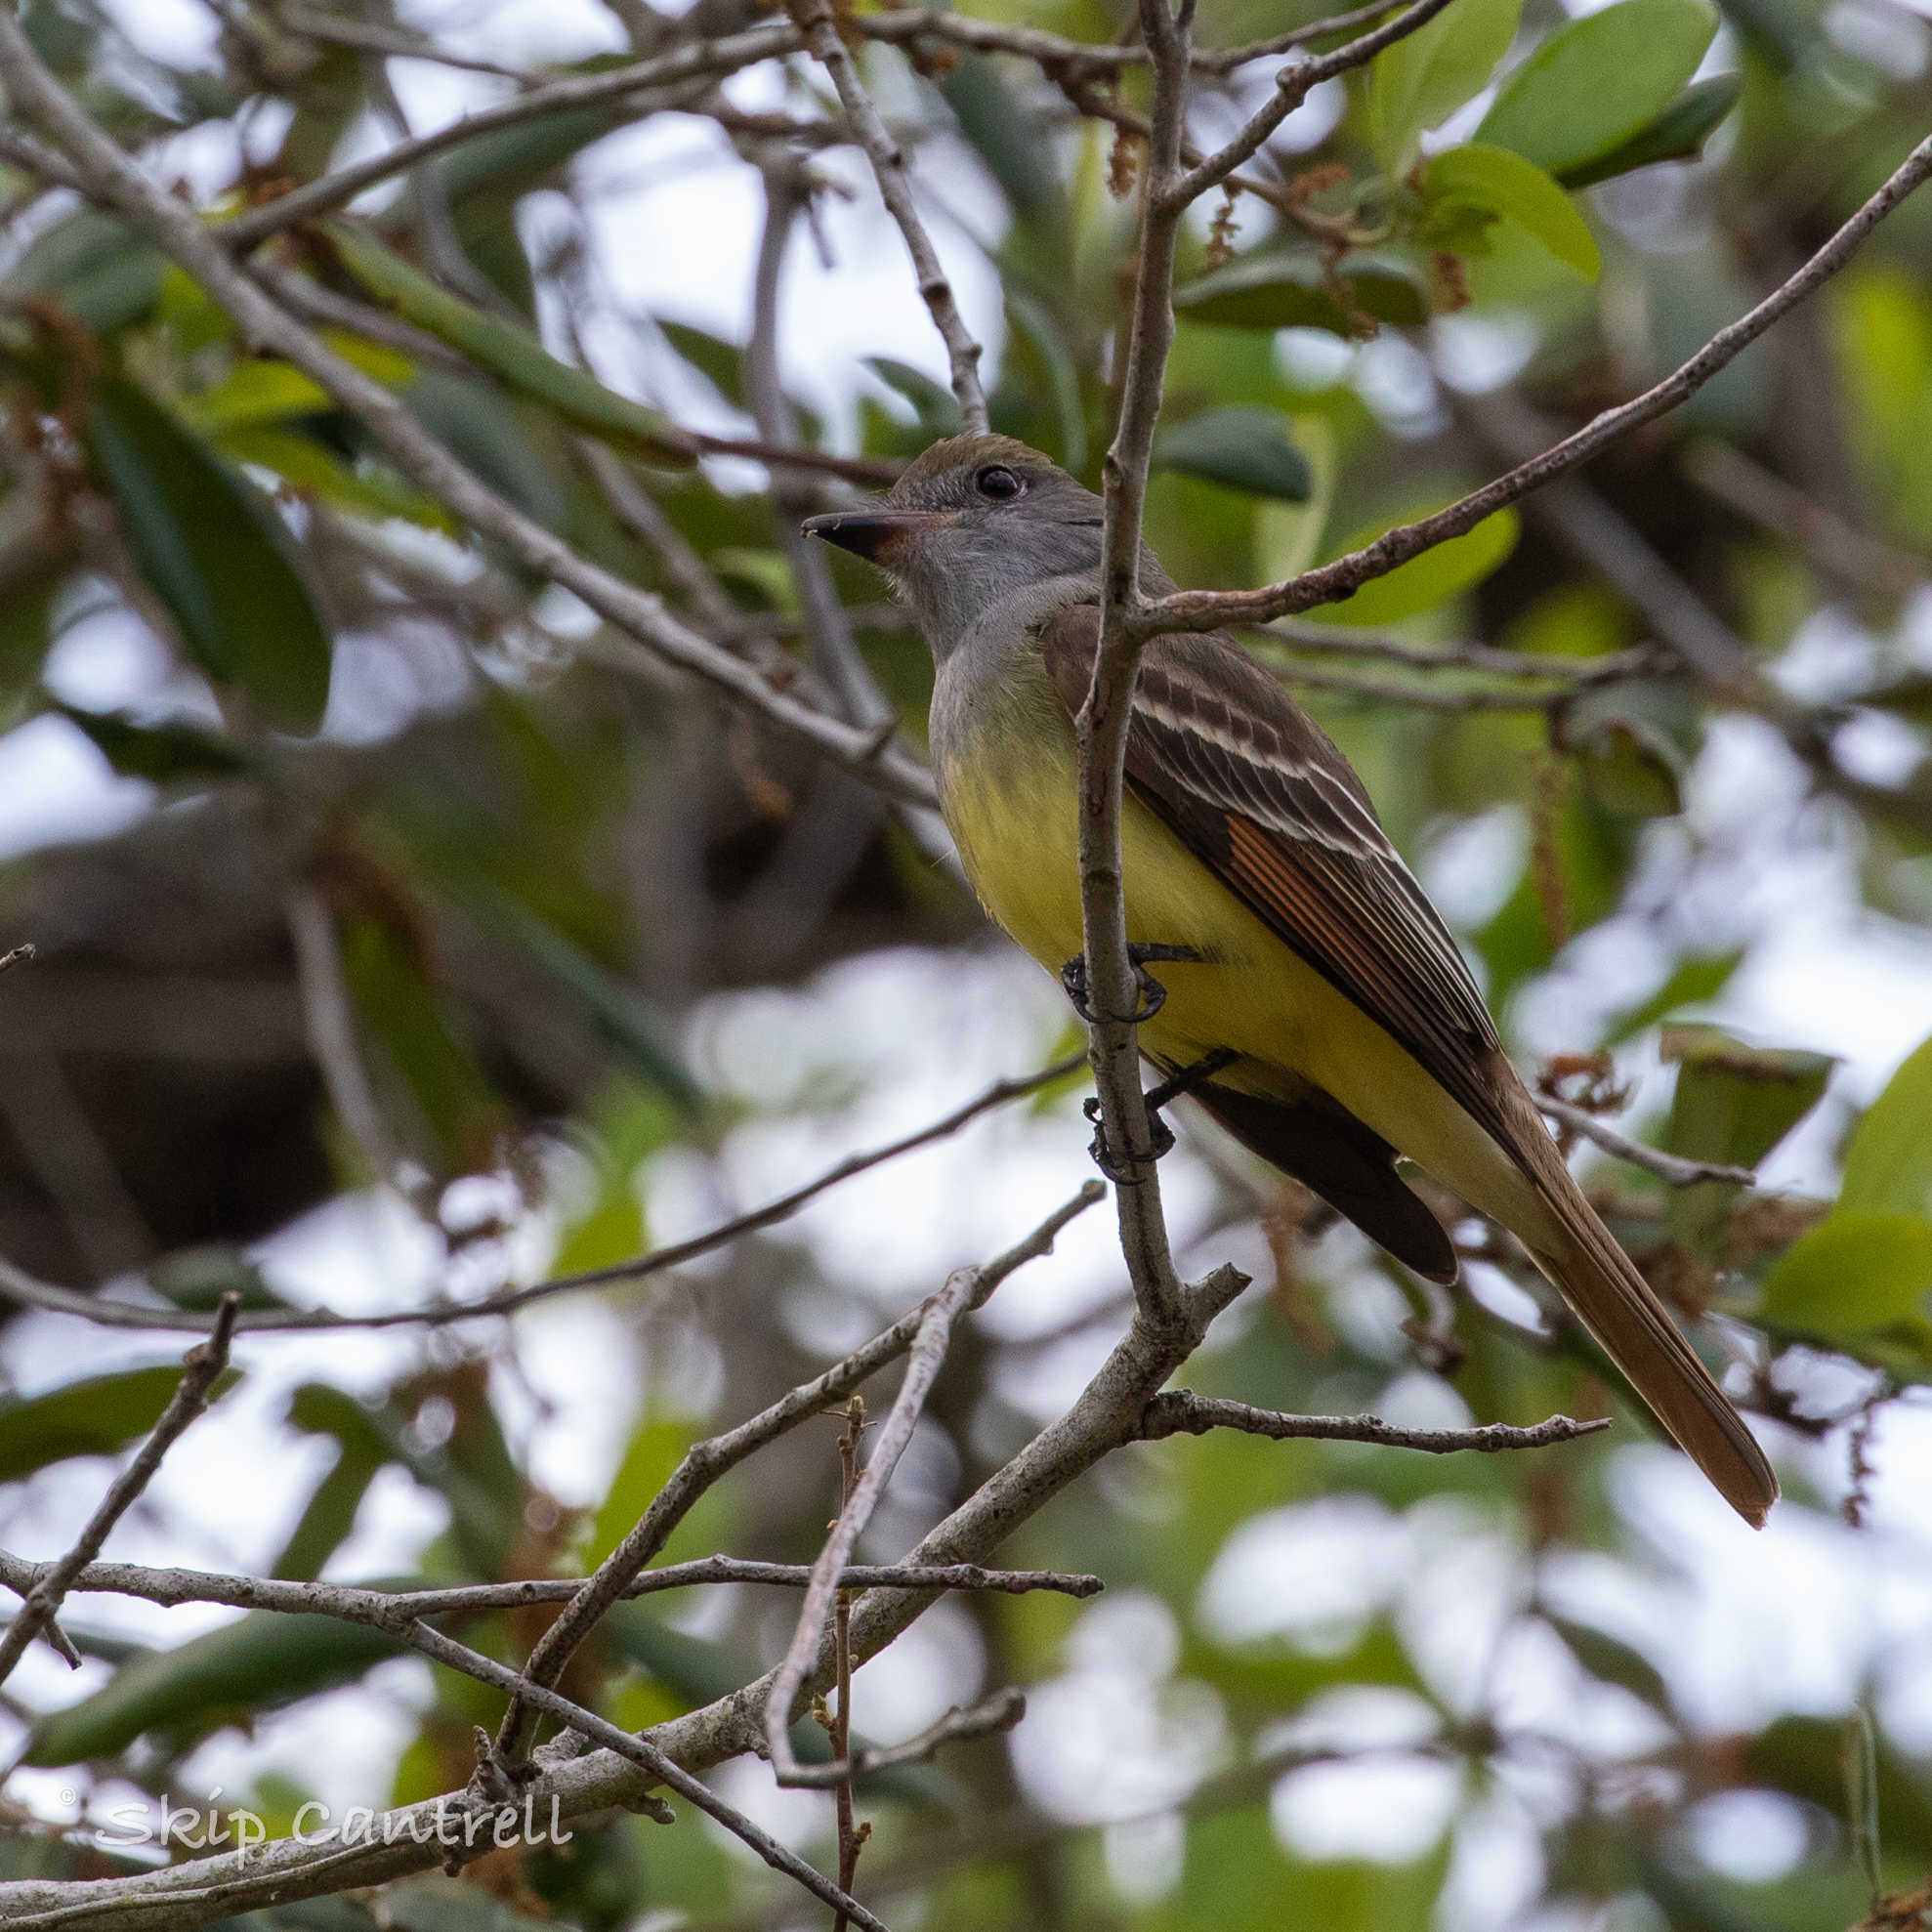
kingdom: Animalia
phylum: Chordata
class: Aves
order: Passeriformes
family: Tyrannidae
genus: Myiarchus
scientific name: Myiarchus crinitus
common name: Great crested flycatcher
